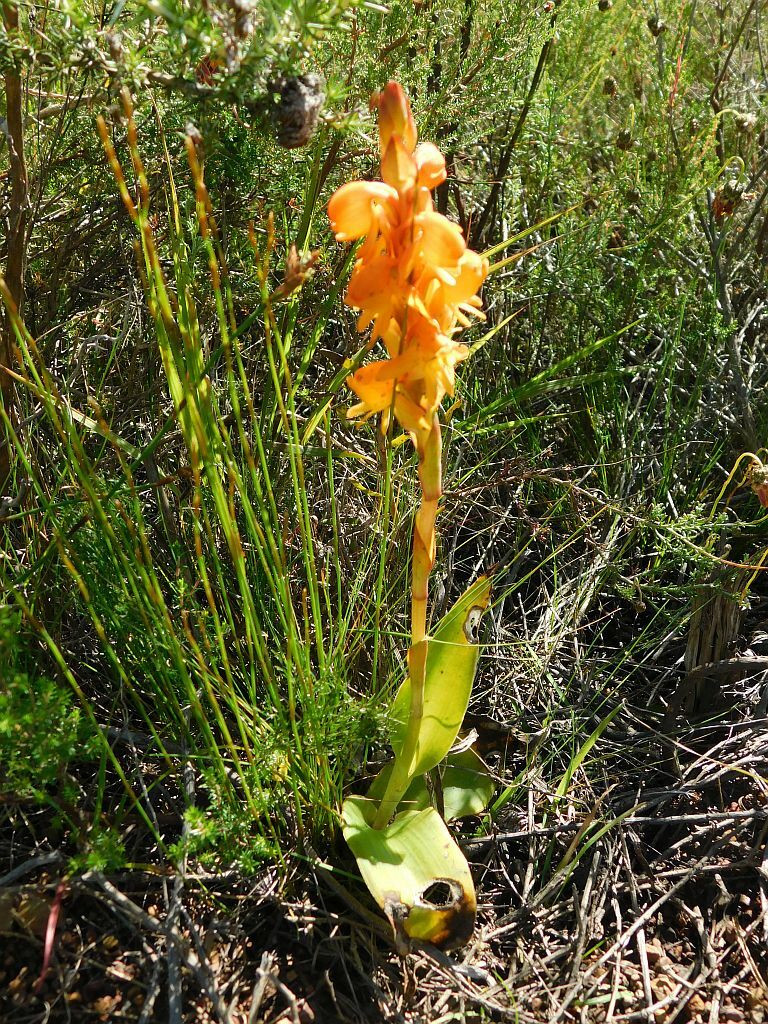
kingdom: Plantae
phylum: Tracheophyta
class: Liliopsida
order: Asparagales
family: Orchidaceae
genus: Satyrium
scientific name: Satyrium coriifolium
